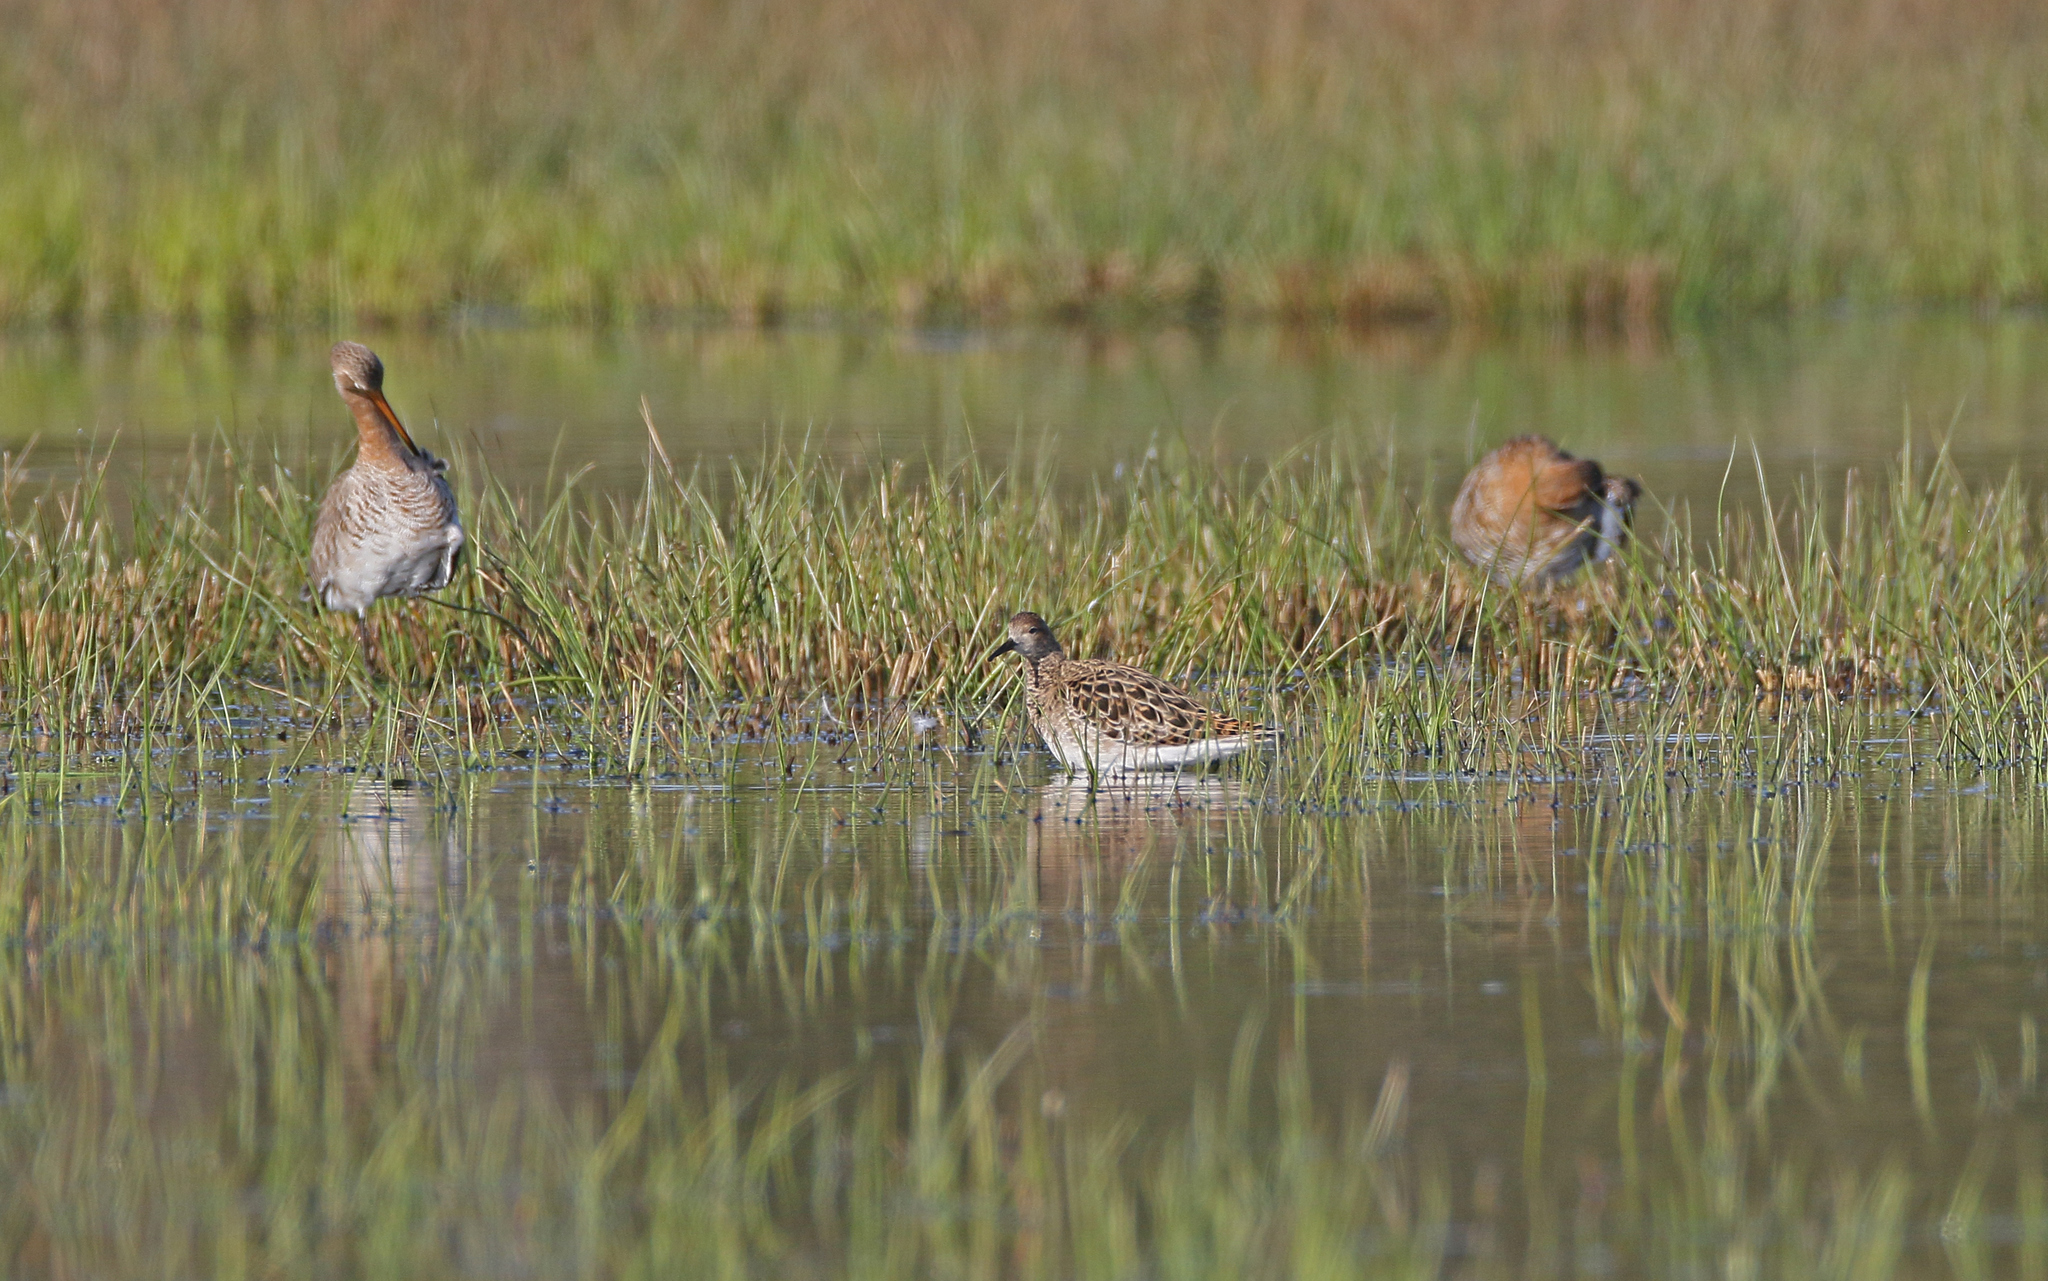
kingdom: Animalia
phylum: Chordata
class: Aves
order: Charadriiformes
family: Scolopacidae
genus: Calidris
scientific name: Calidris pugnax
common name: Ruff
